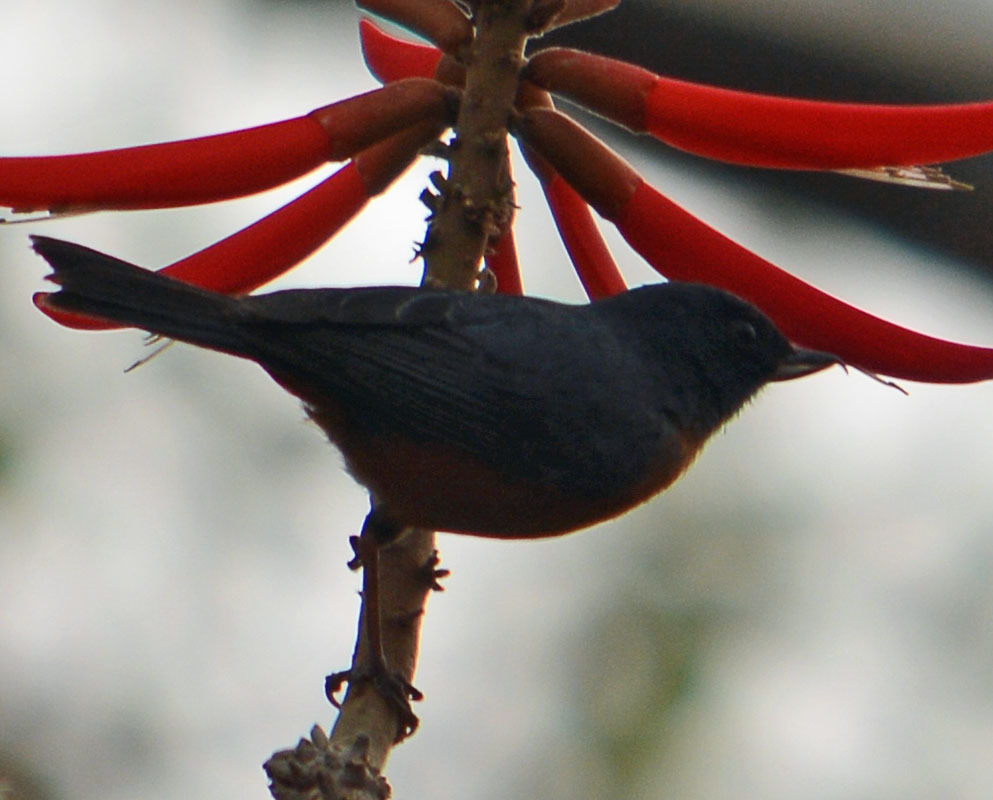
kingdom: Animalia
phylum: Chordata
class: Aves
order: Passeriformes
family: Thraupidae
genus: Diglossa
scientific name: Diglossa baritula
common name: Cinnamon-bellied flowerpiercer
